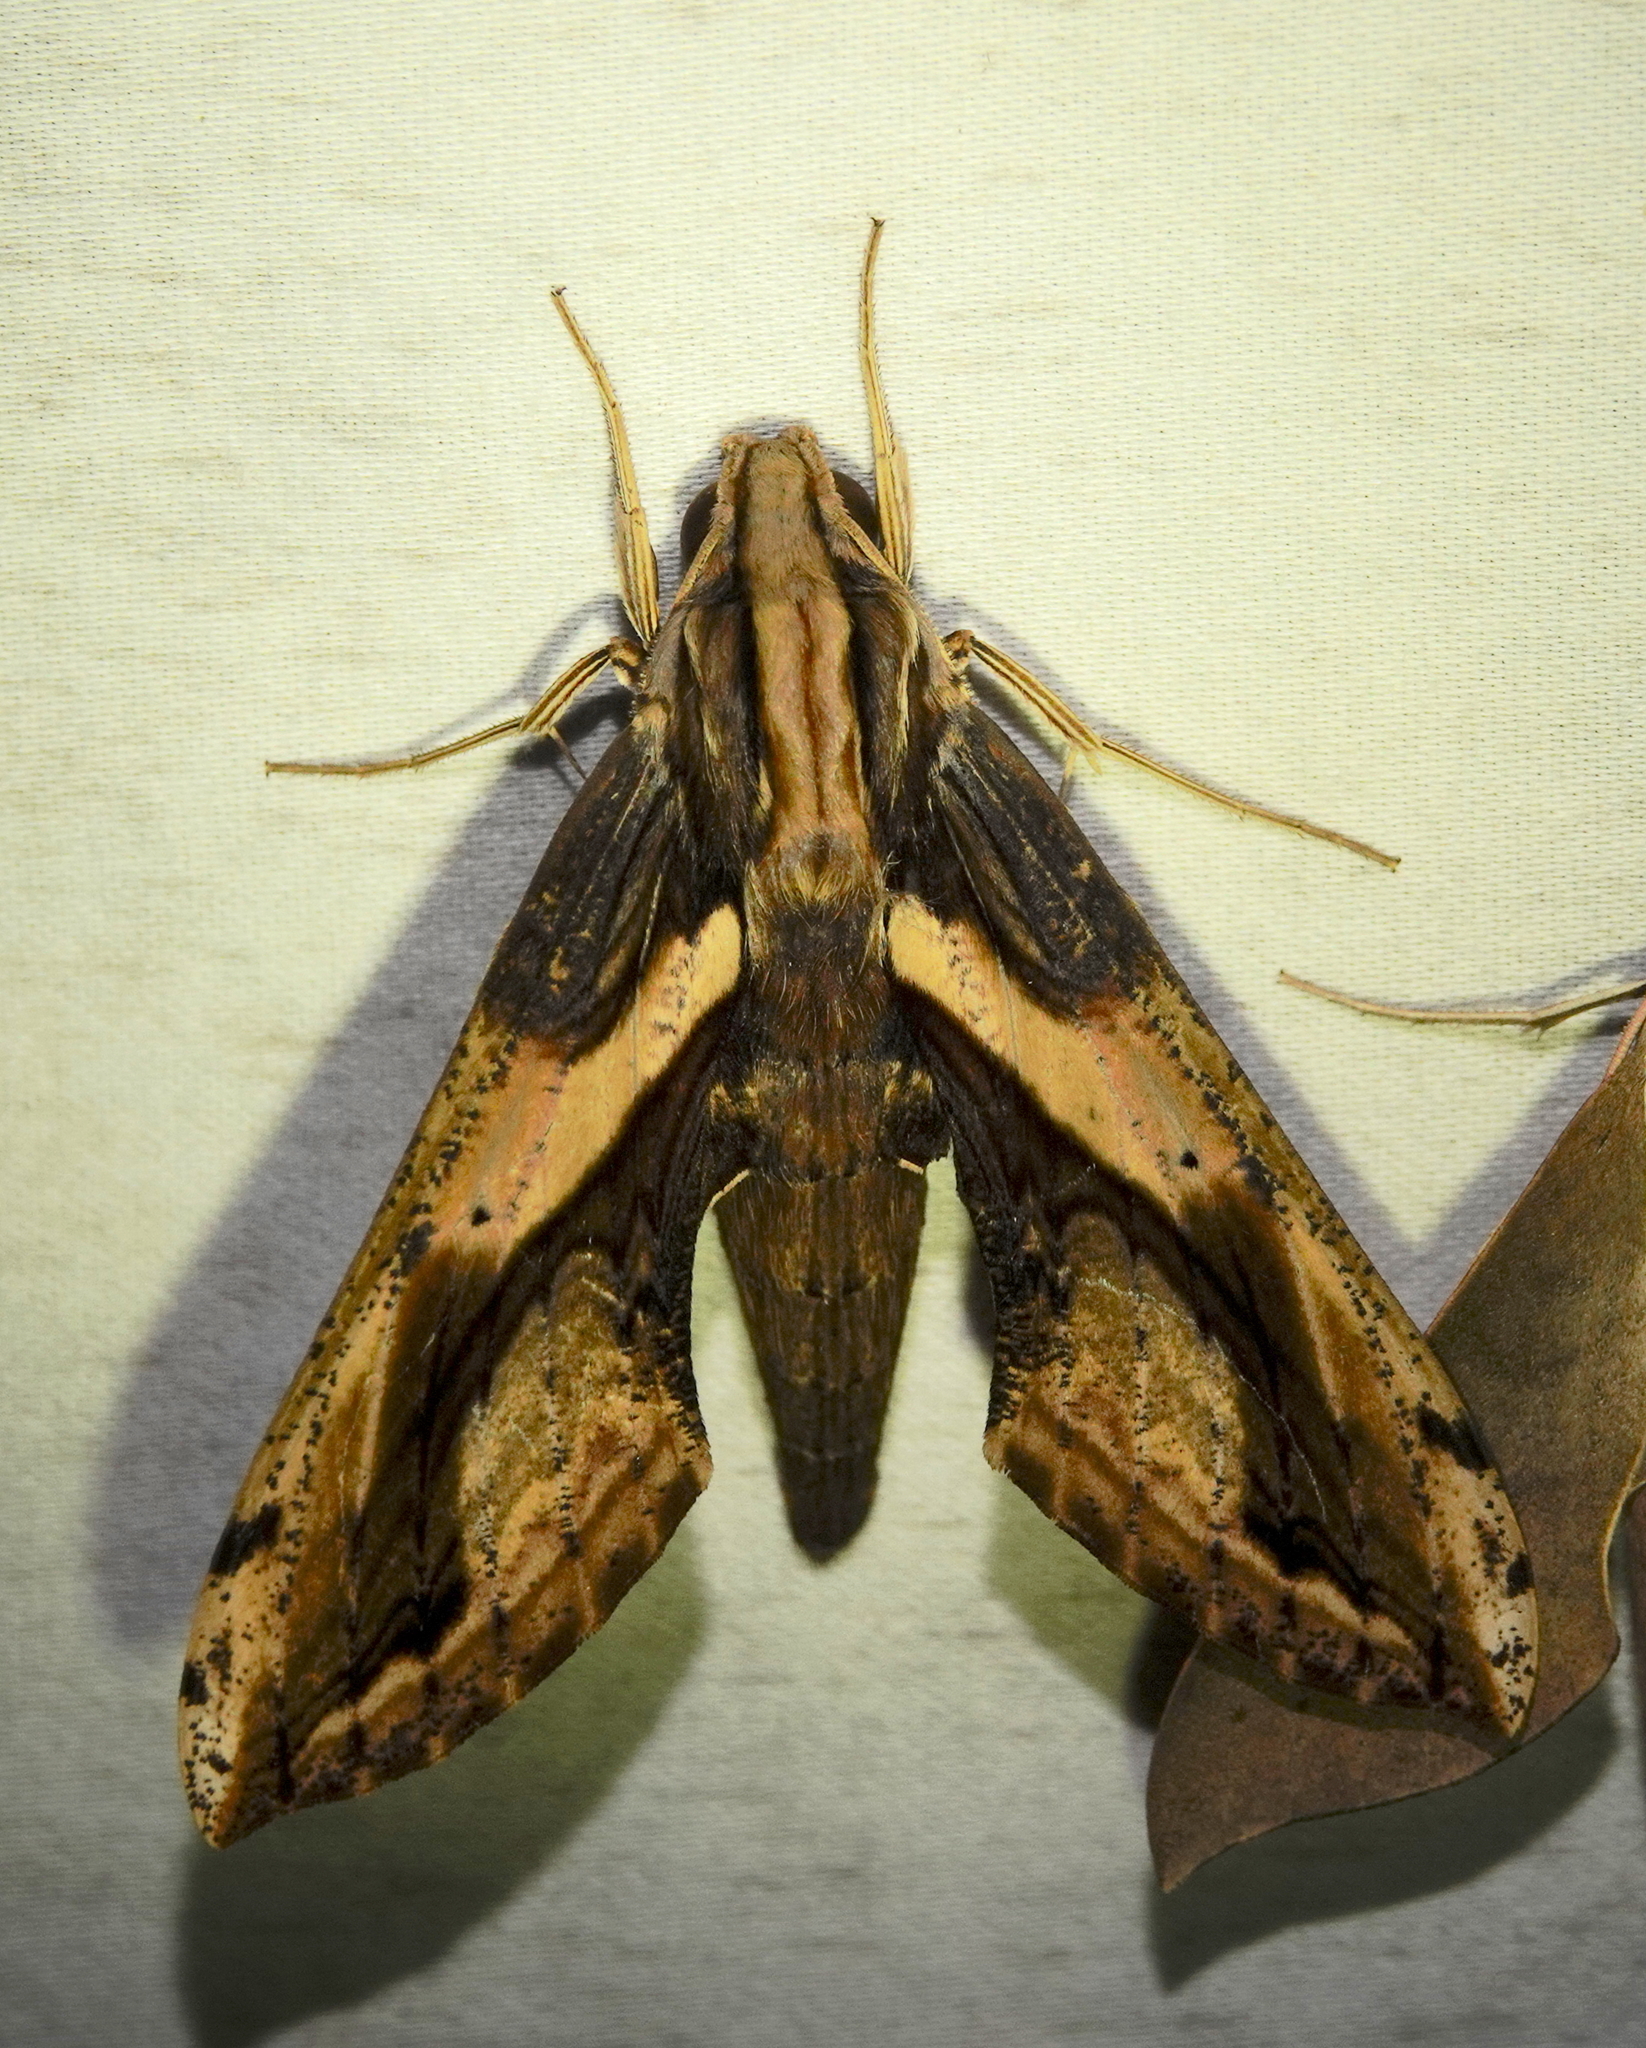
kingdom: Animalia
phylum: Arthropoda
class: Insecta
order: Lepidoptera
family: Sphingidae
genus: Xylophanes
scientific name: Xylophanes ceratomioides
